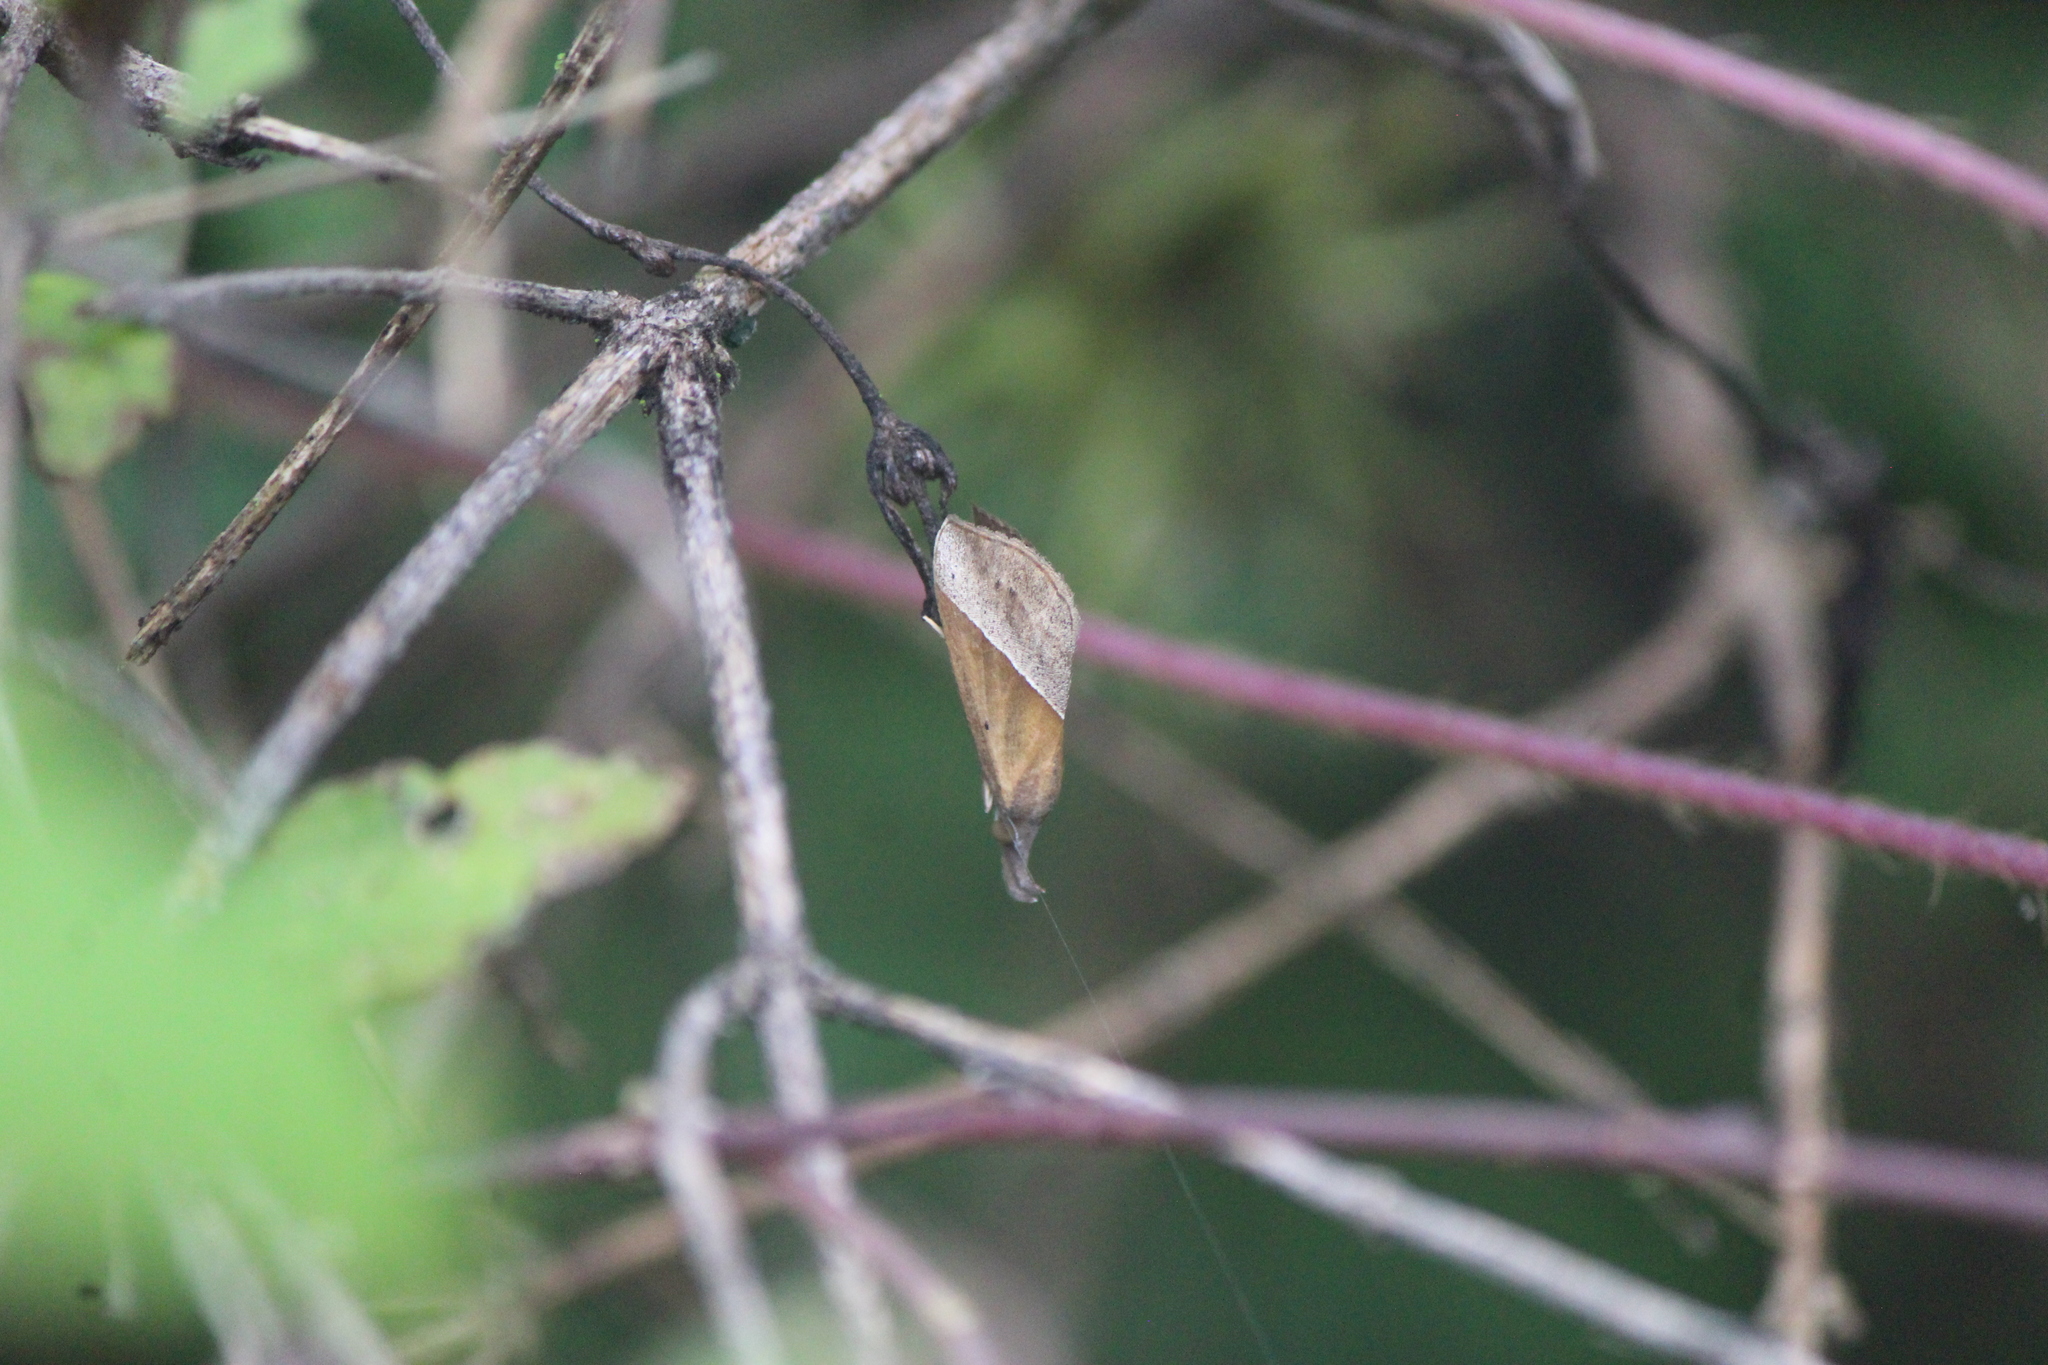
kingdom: Animalia
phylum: Arthropoda
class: Insecta
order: Lepidoptera
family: Erebidae
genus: Hypena
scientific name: Hypena lividalis
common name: Chevron snout
